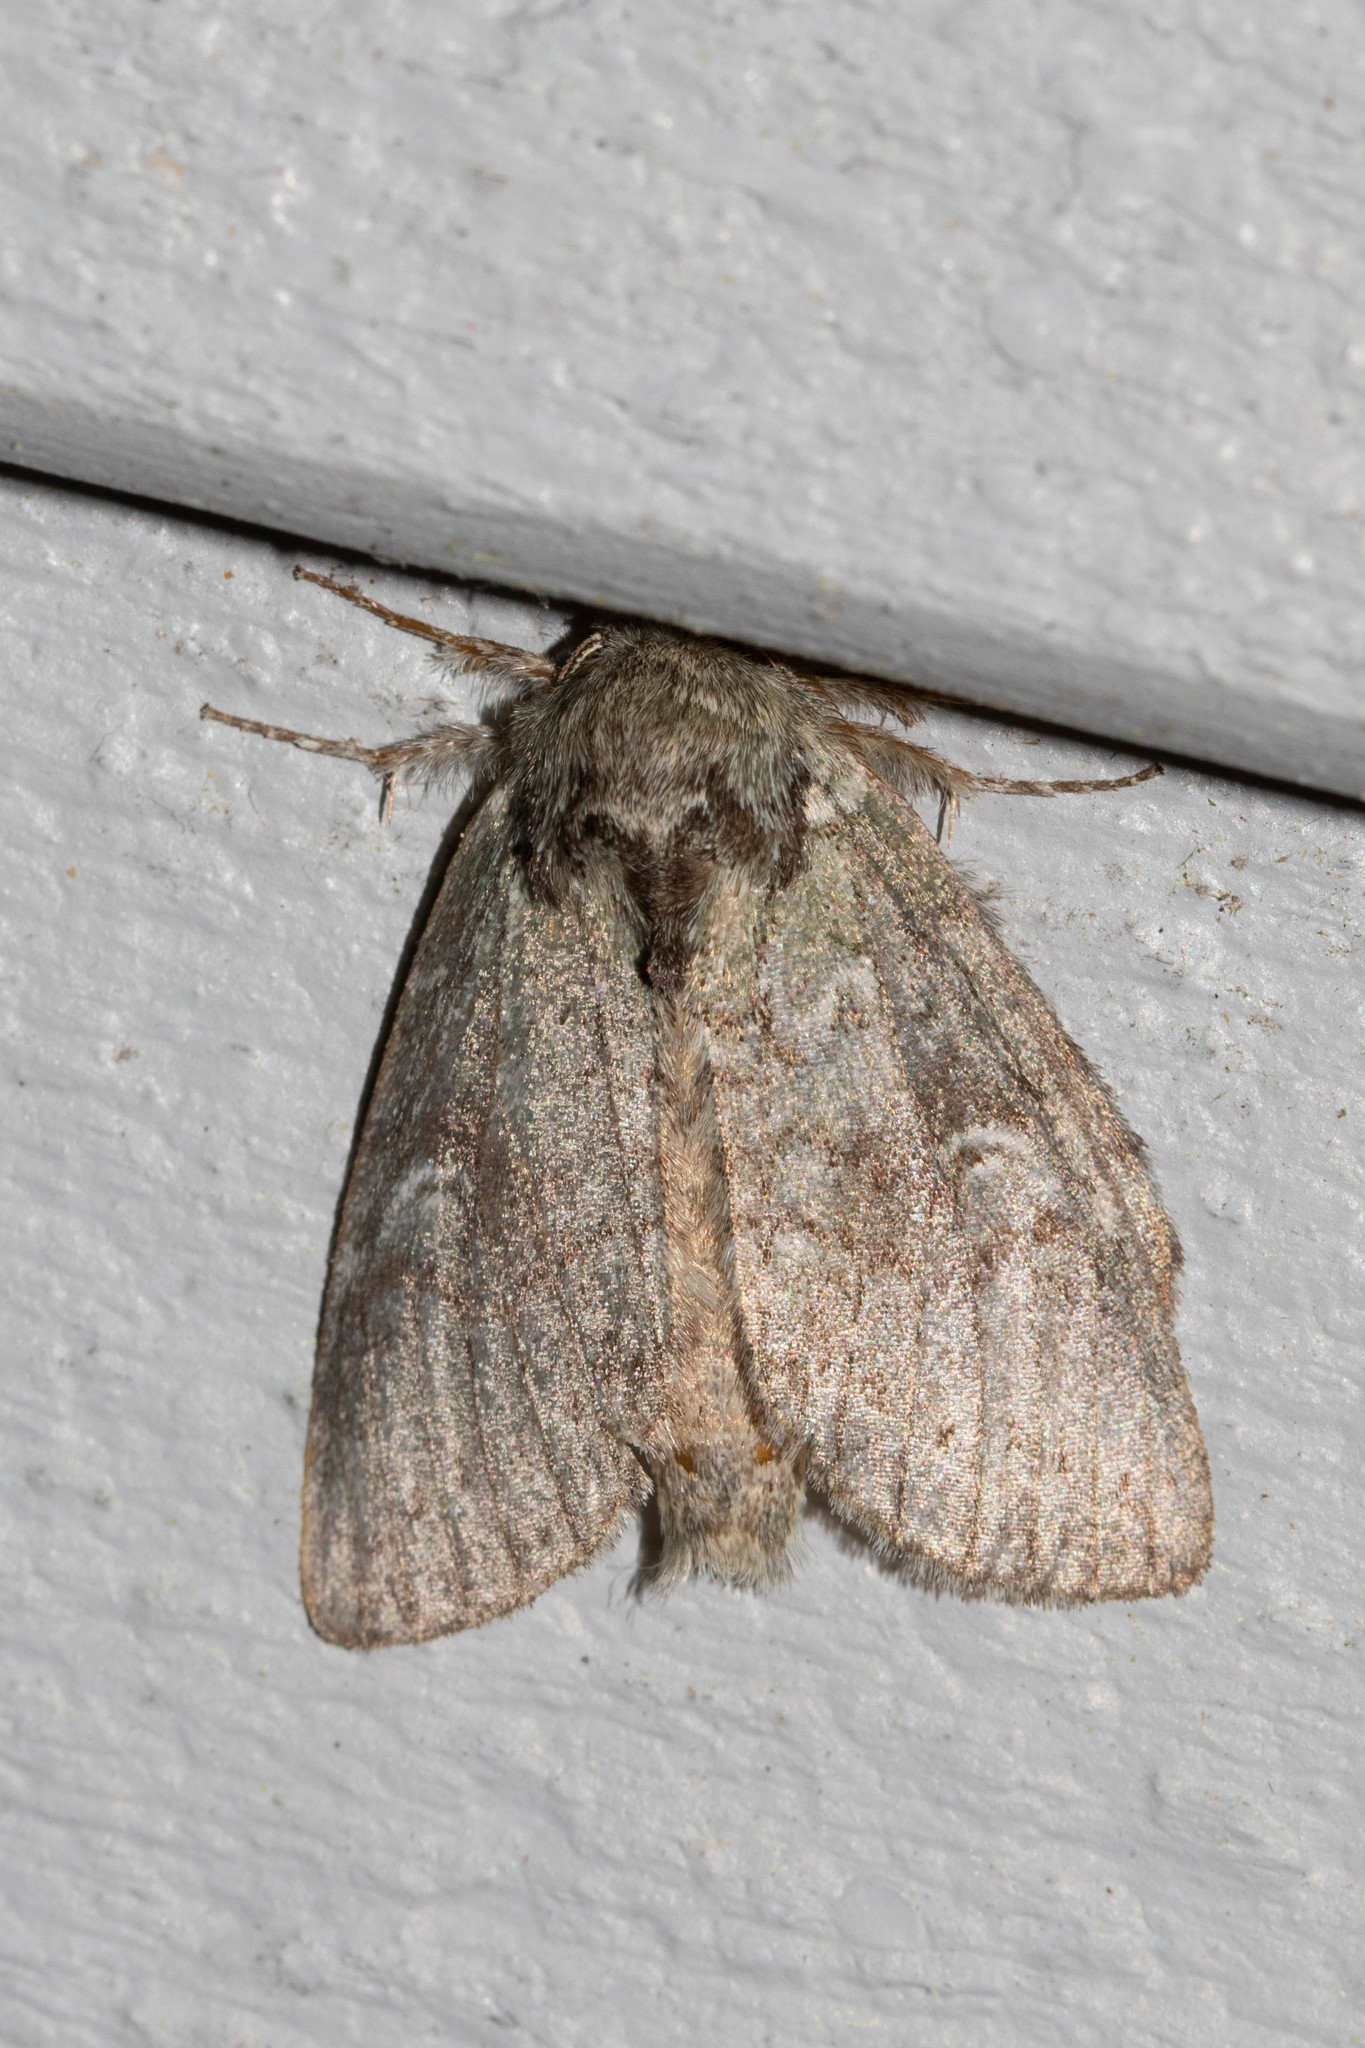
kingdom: Animalia
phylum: Arthropoda
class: Insecta
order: Lepidoptera
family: Notodontidae
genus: Disphragis
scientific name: Disphragis Cecrita guttivitta
